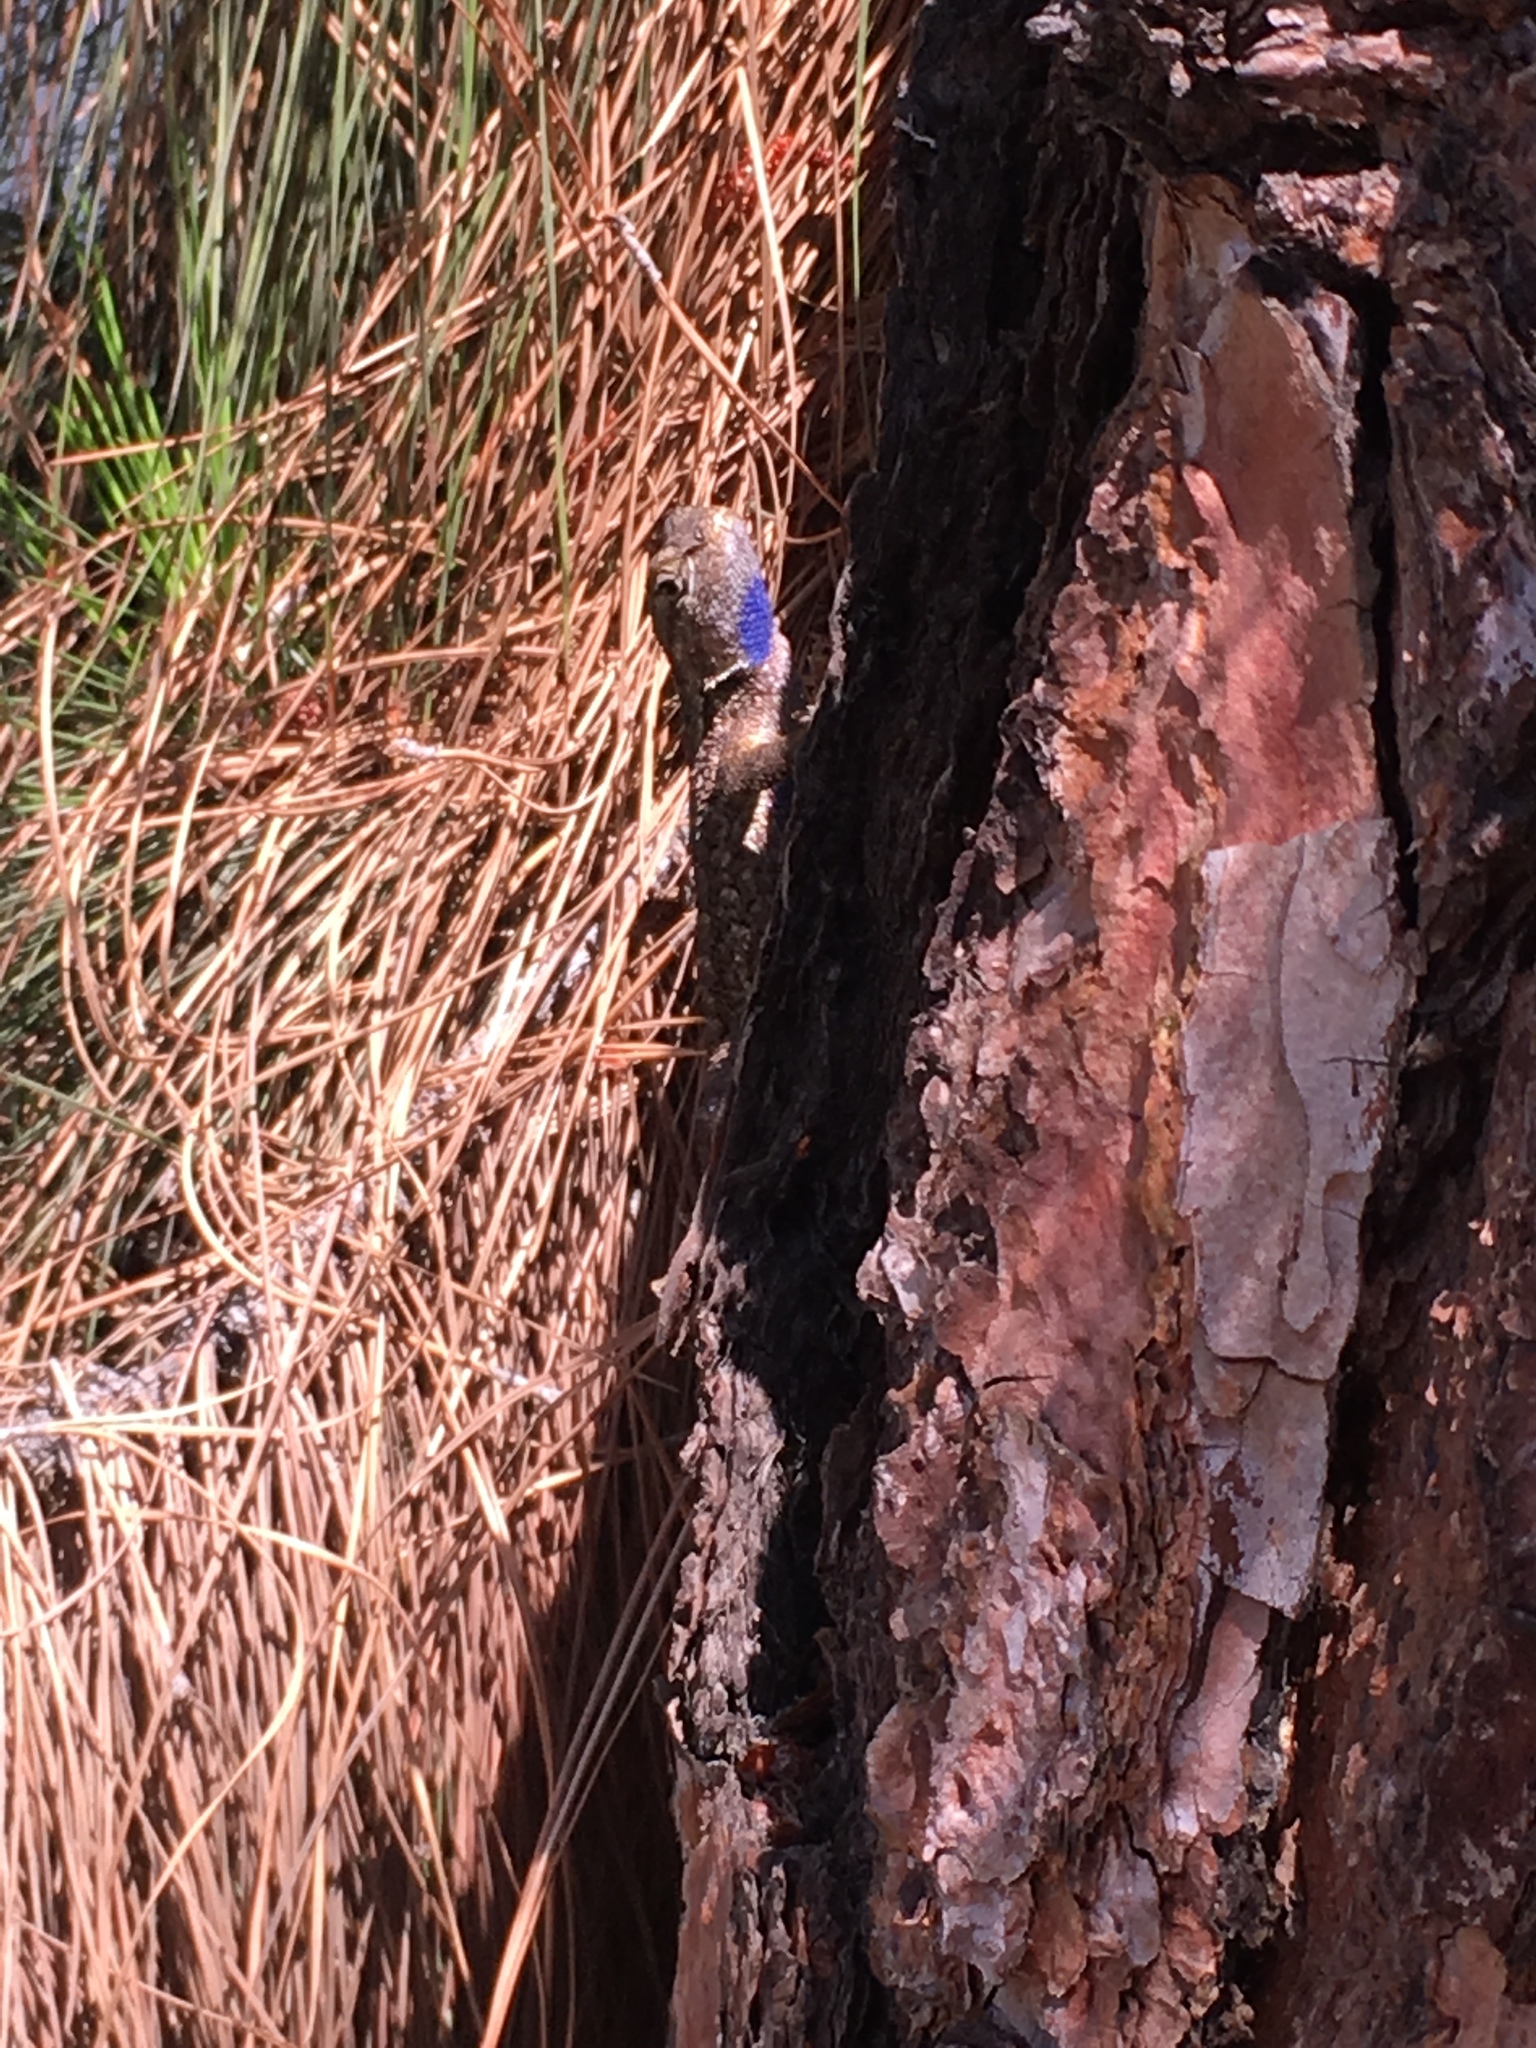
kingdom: Animalia
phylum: Chordata
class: Squamata
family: Phrynosomatidae
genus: Sceloporus
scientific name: Sceloporus occidentalis
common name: Western fence lizard
